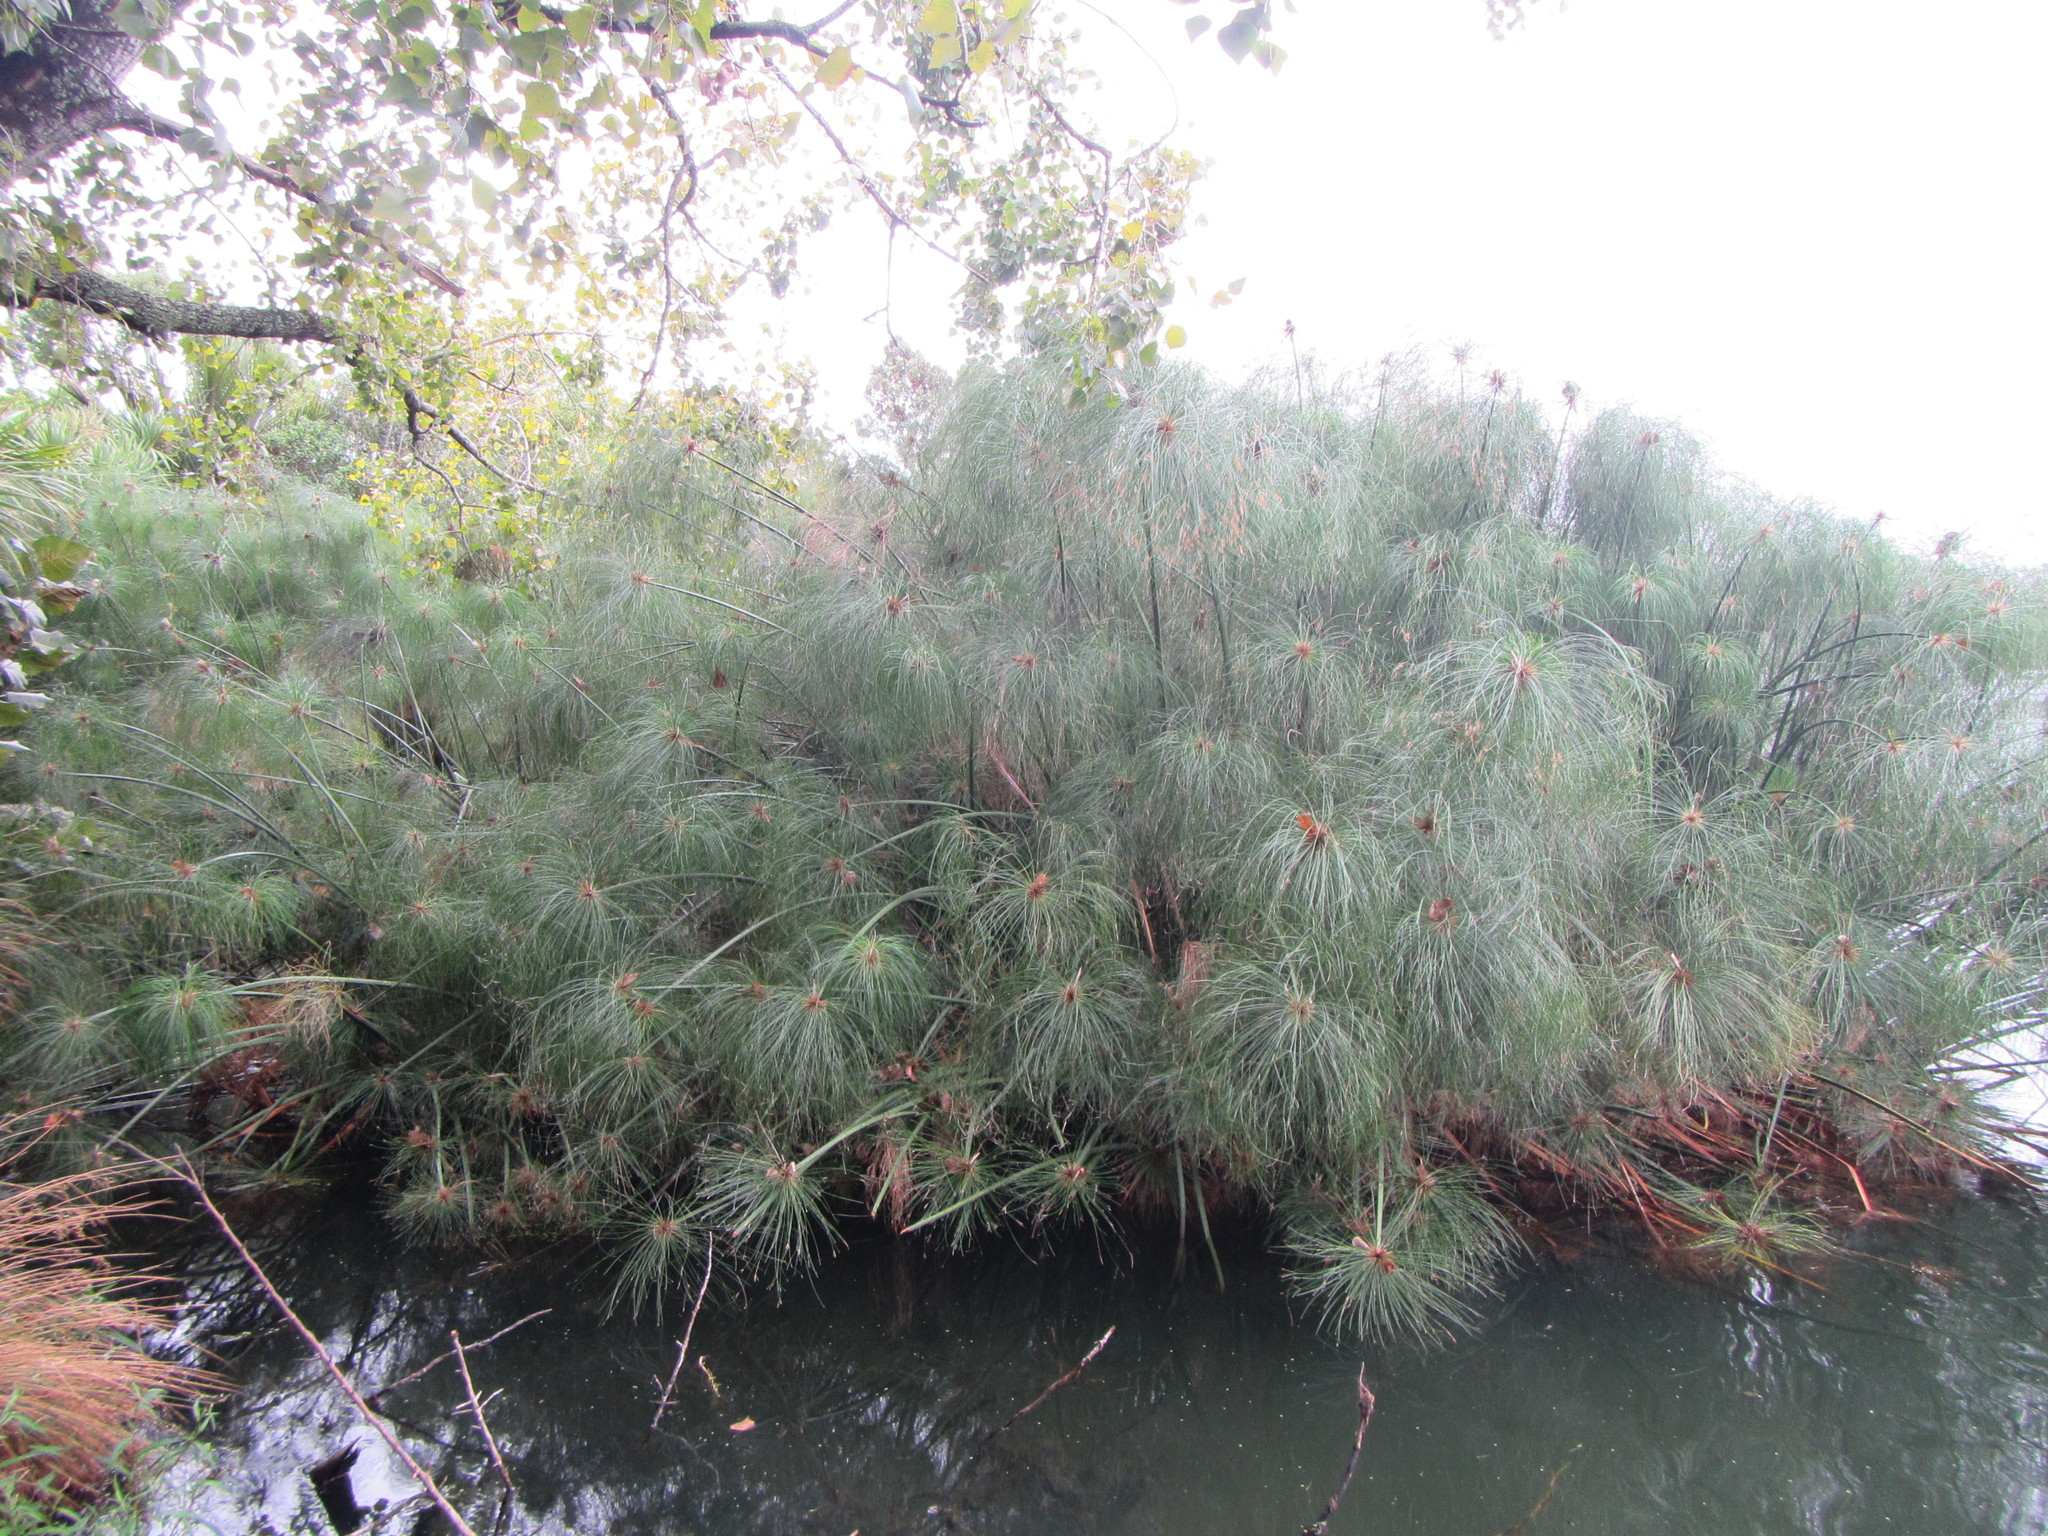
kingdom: Plantae
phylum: Tracheophyta
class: Liliopsida
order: Poales
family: Cyperaceae
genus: Cyperus
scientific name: Cyperus papyrus
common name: Papyrus
